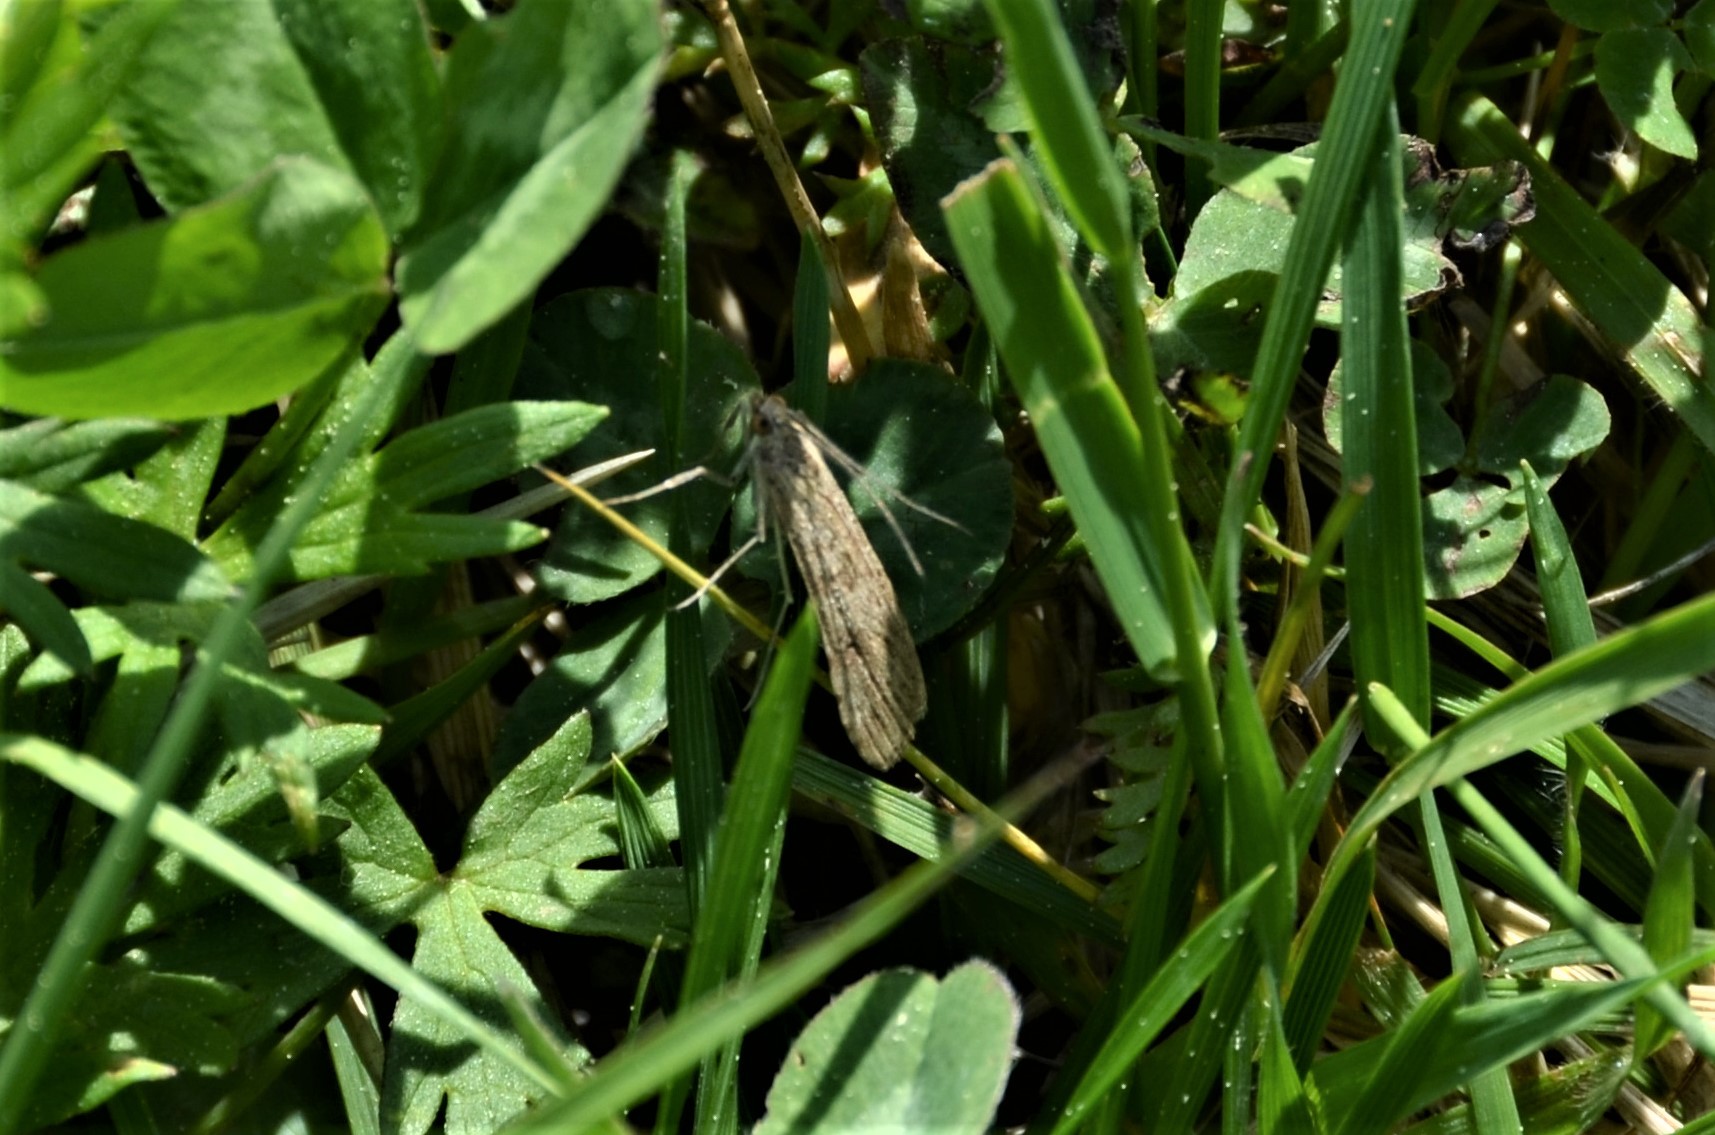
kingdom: Animalia
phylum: Arthropoda
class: Insecta
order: Lepidoptera
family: Crambidae
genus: Nomophila
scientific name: Nomophila noctuella
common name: Rush veneer
